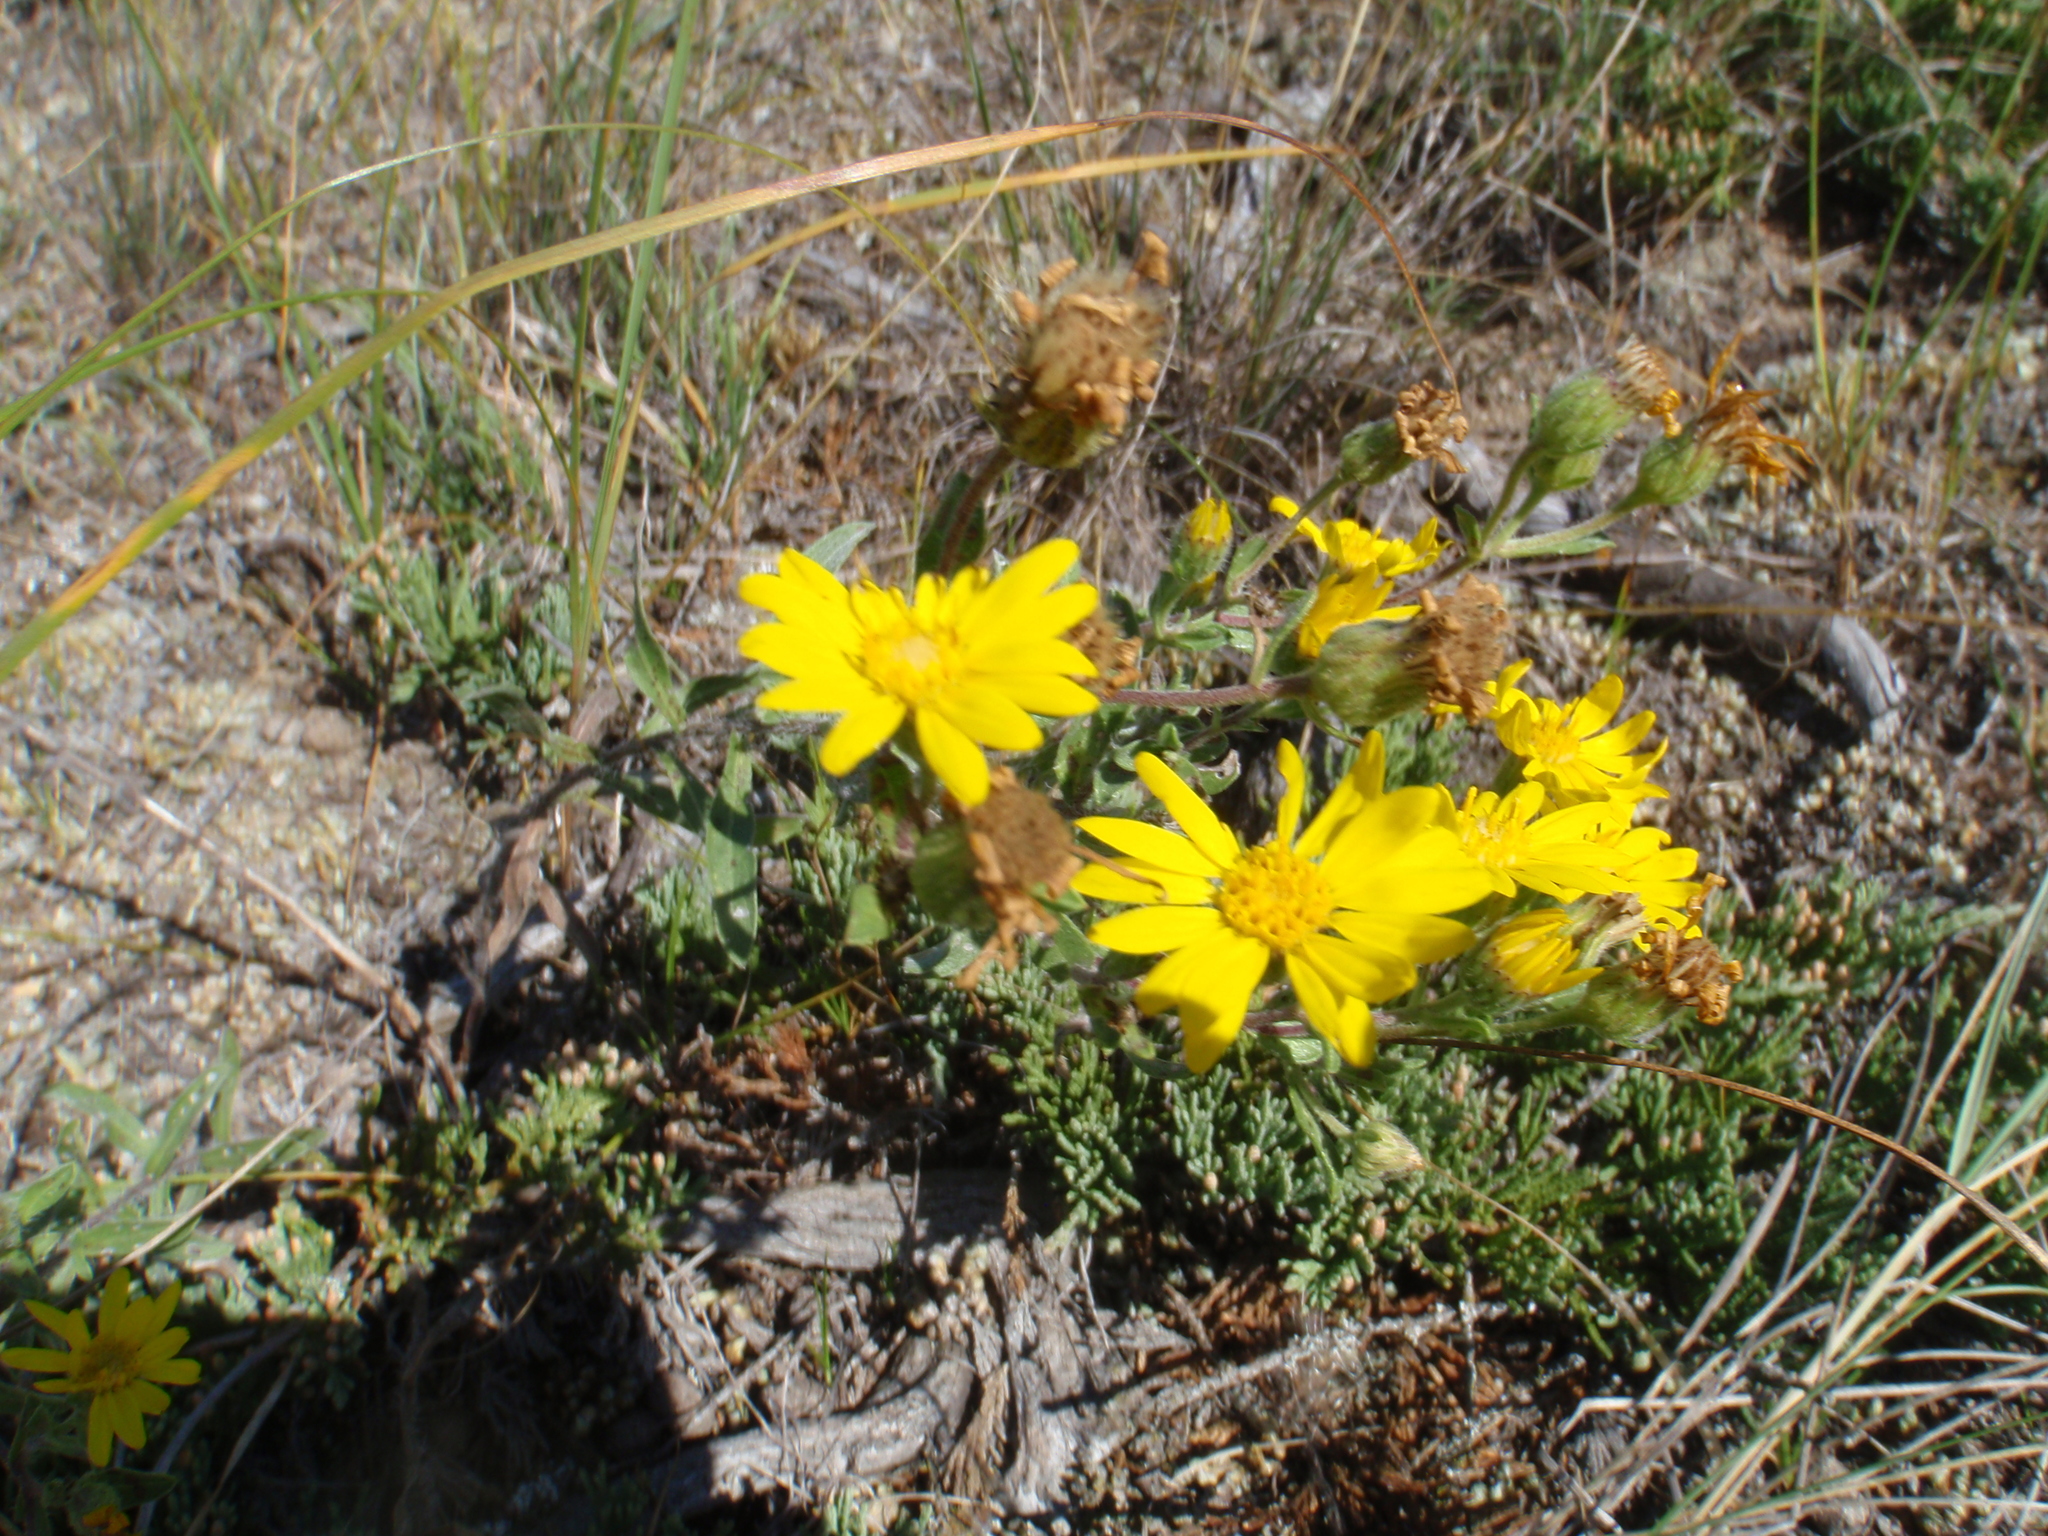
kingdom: Plantae
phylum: Tracheophyta
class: Magnoliopsida
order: Asterales
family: Asteraceae
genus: Heterotheca
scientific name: Heterotheca villosa
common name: Hairy false goldenaster
